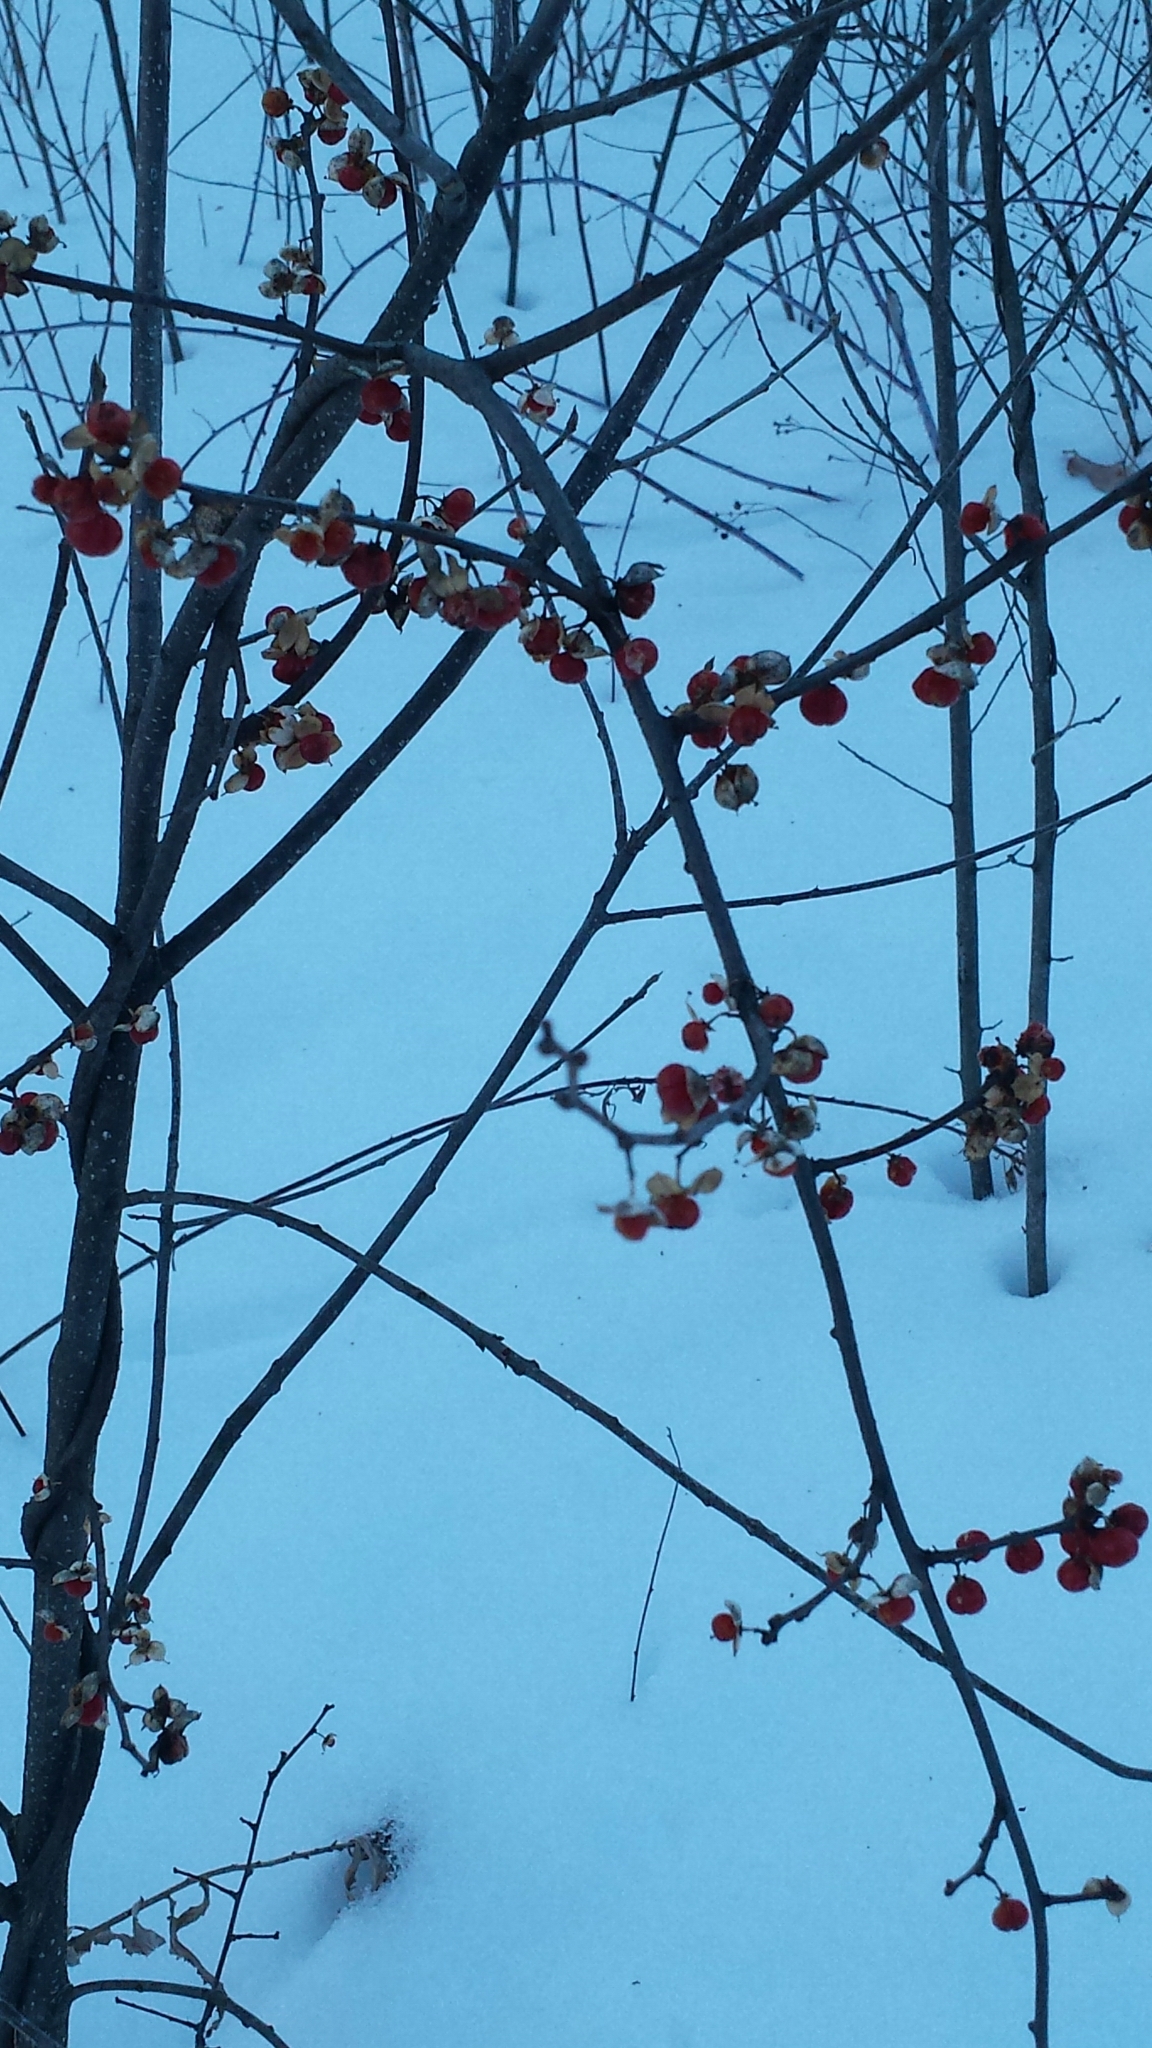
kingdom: Plantae
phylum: Tracheophyta
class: Magnoliopsida
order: Celastrales
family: Celastraceae
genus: Celastrus
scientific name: Celastrus orbiculatus
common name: Oriental bittersweet
